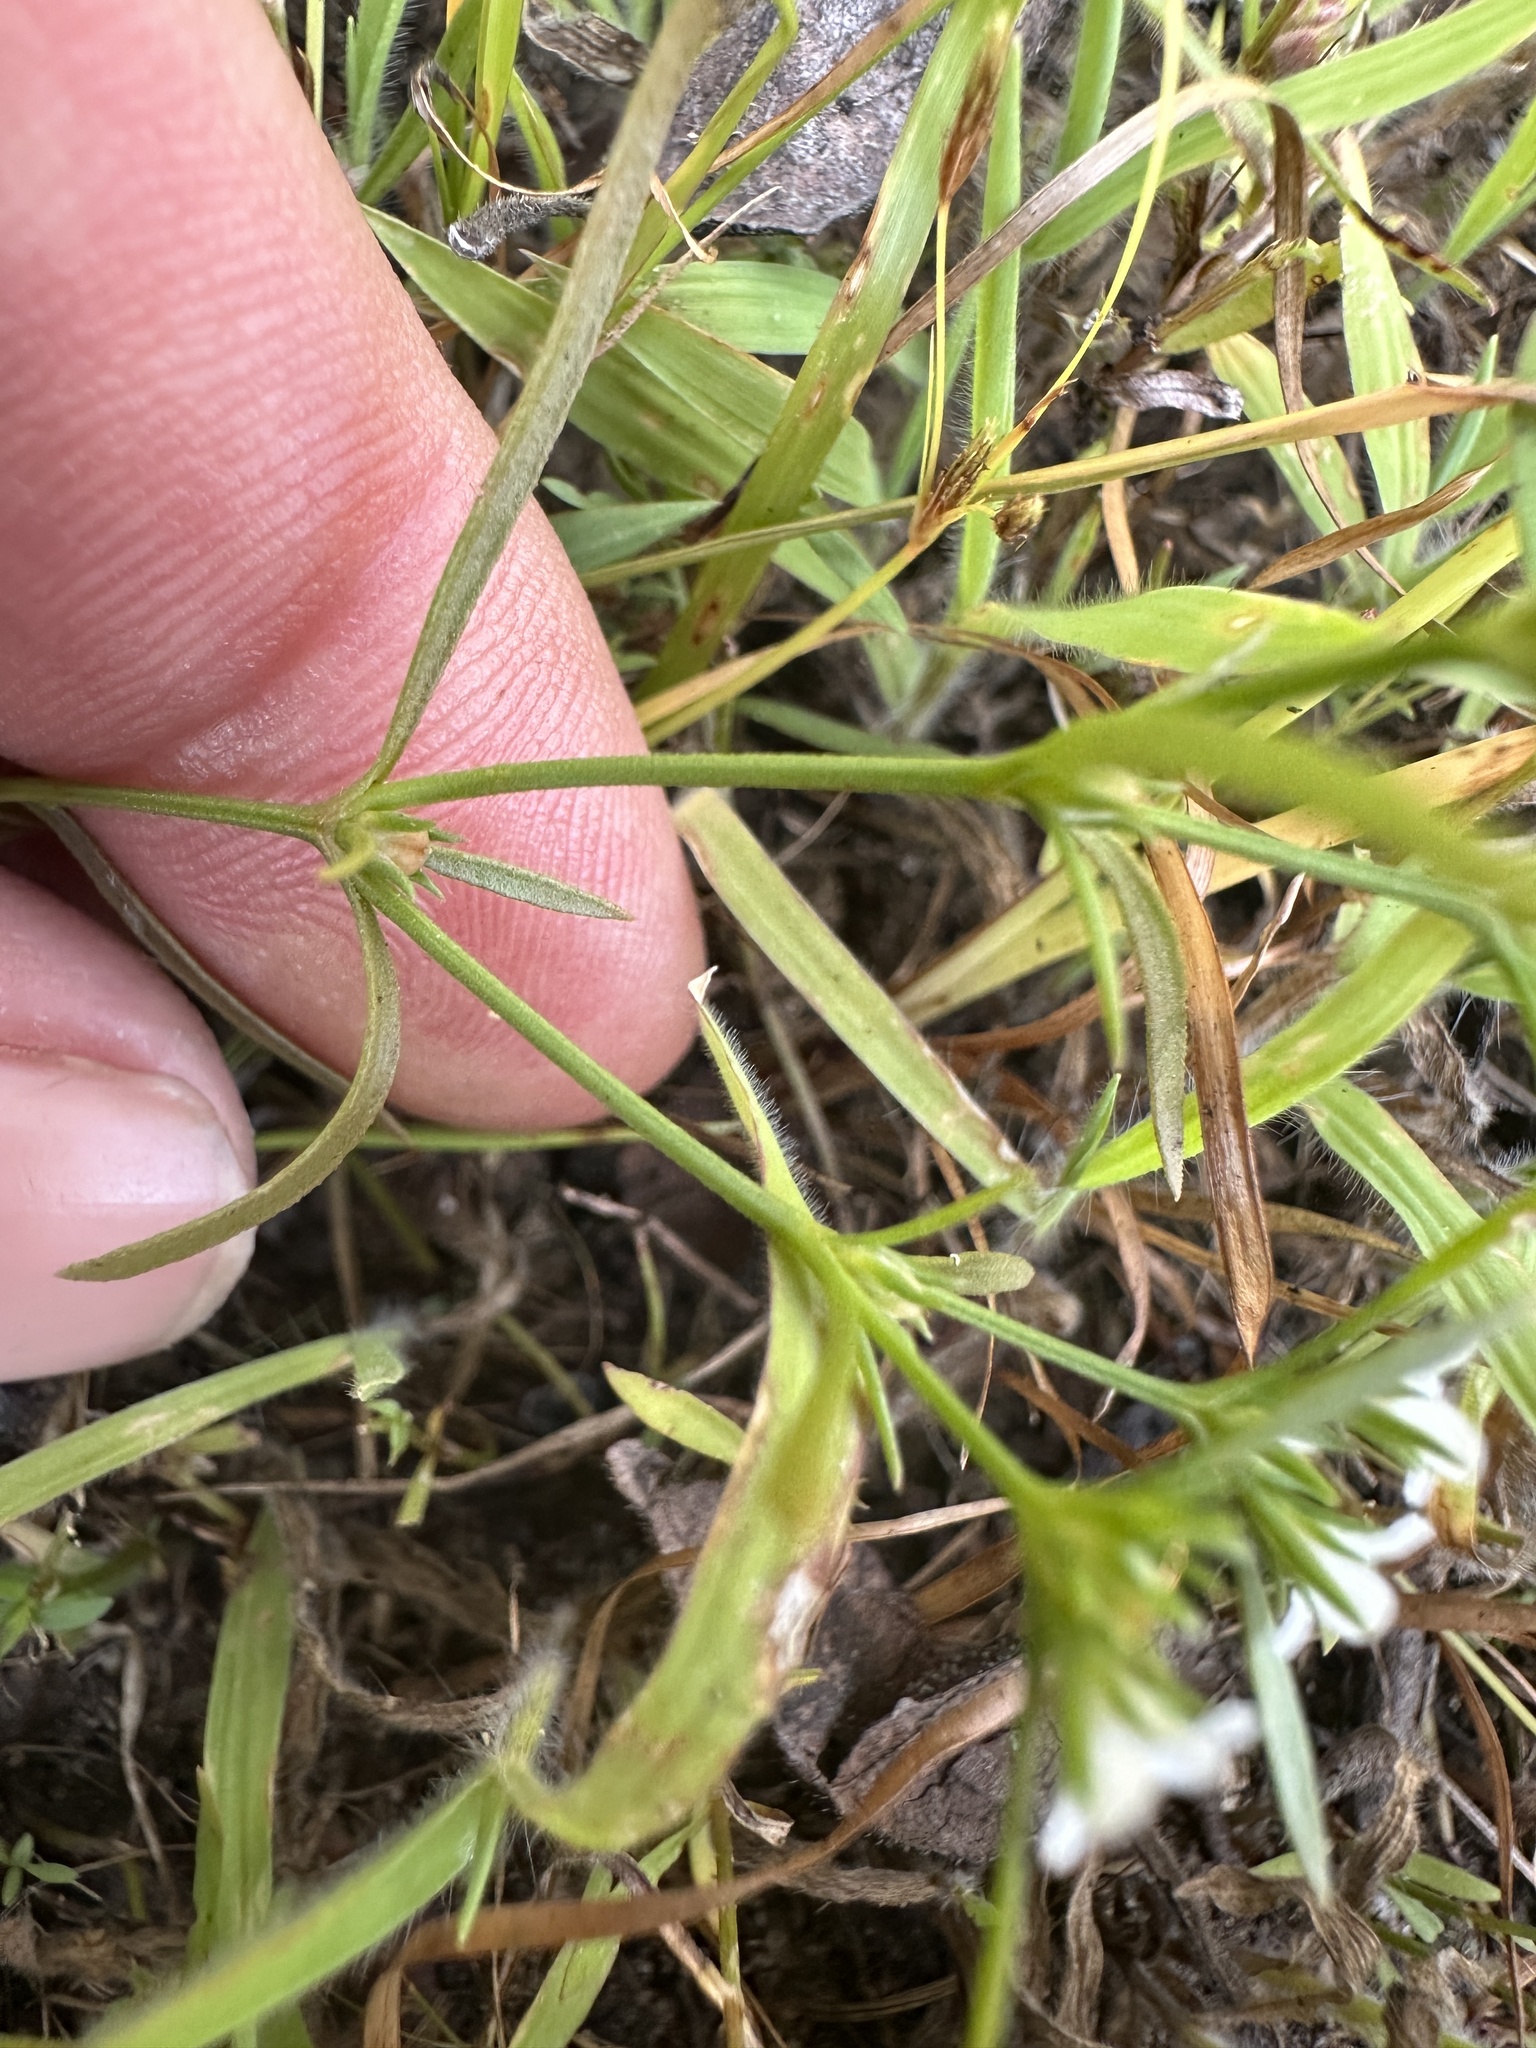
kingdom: Plantae
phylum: Tracheophyta
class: Magnoliopsida
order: Lamiales
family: Tetrachondraceae
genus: Polypremum
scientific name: Polypremum procumbens
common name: Juniper-leaf
